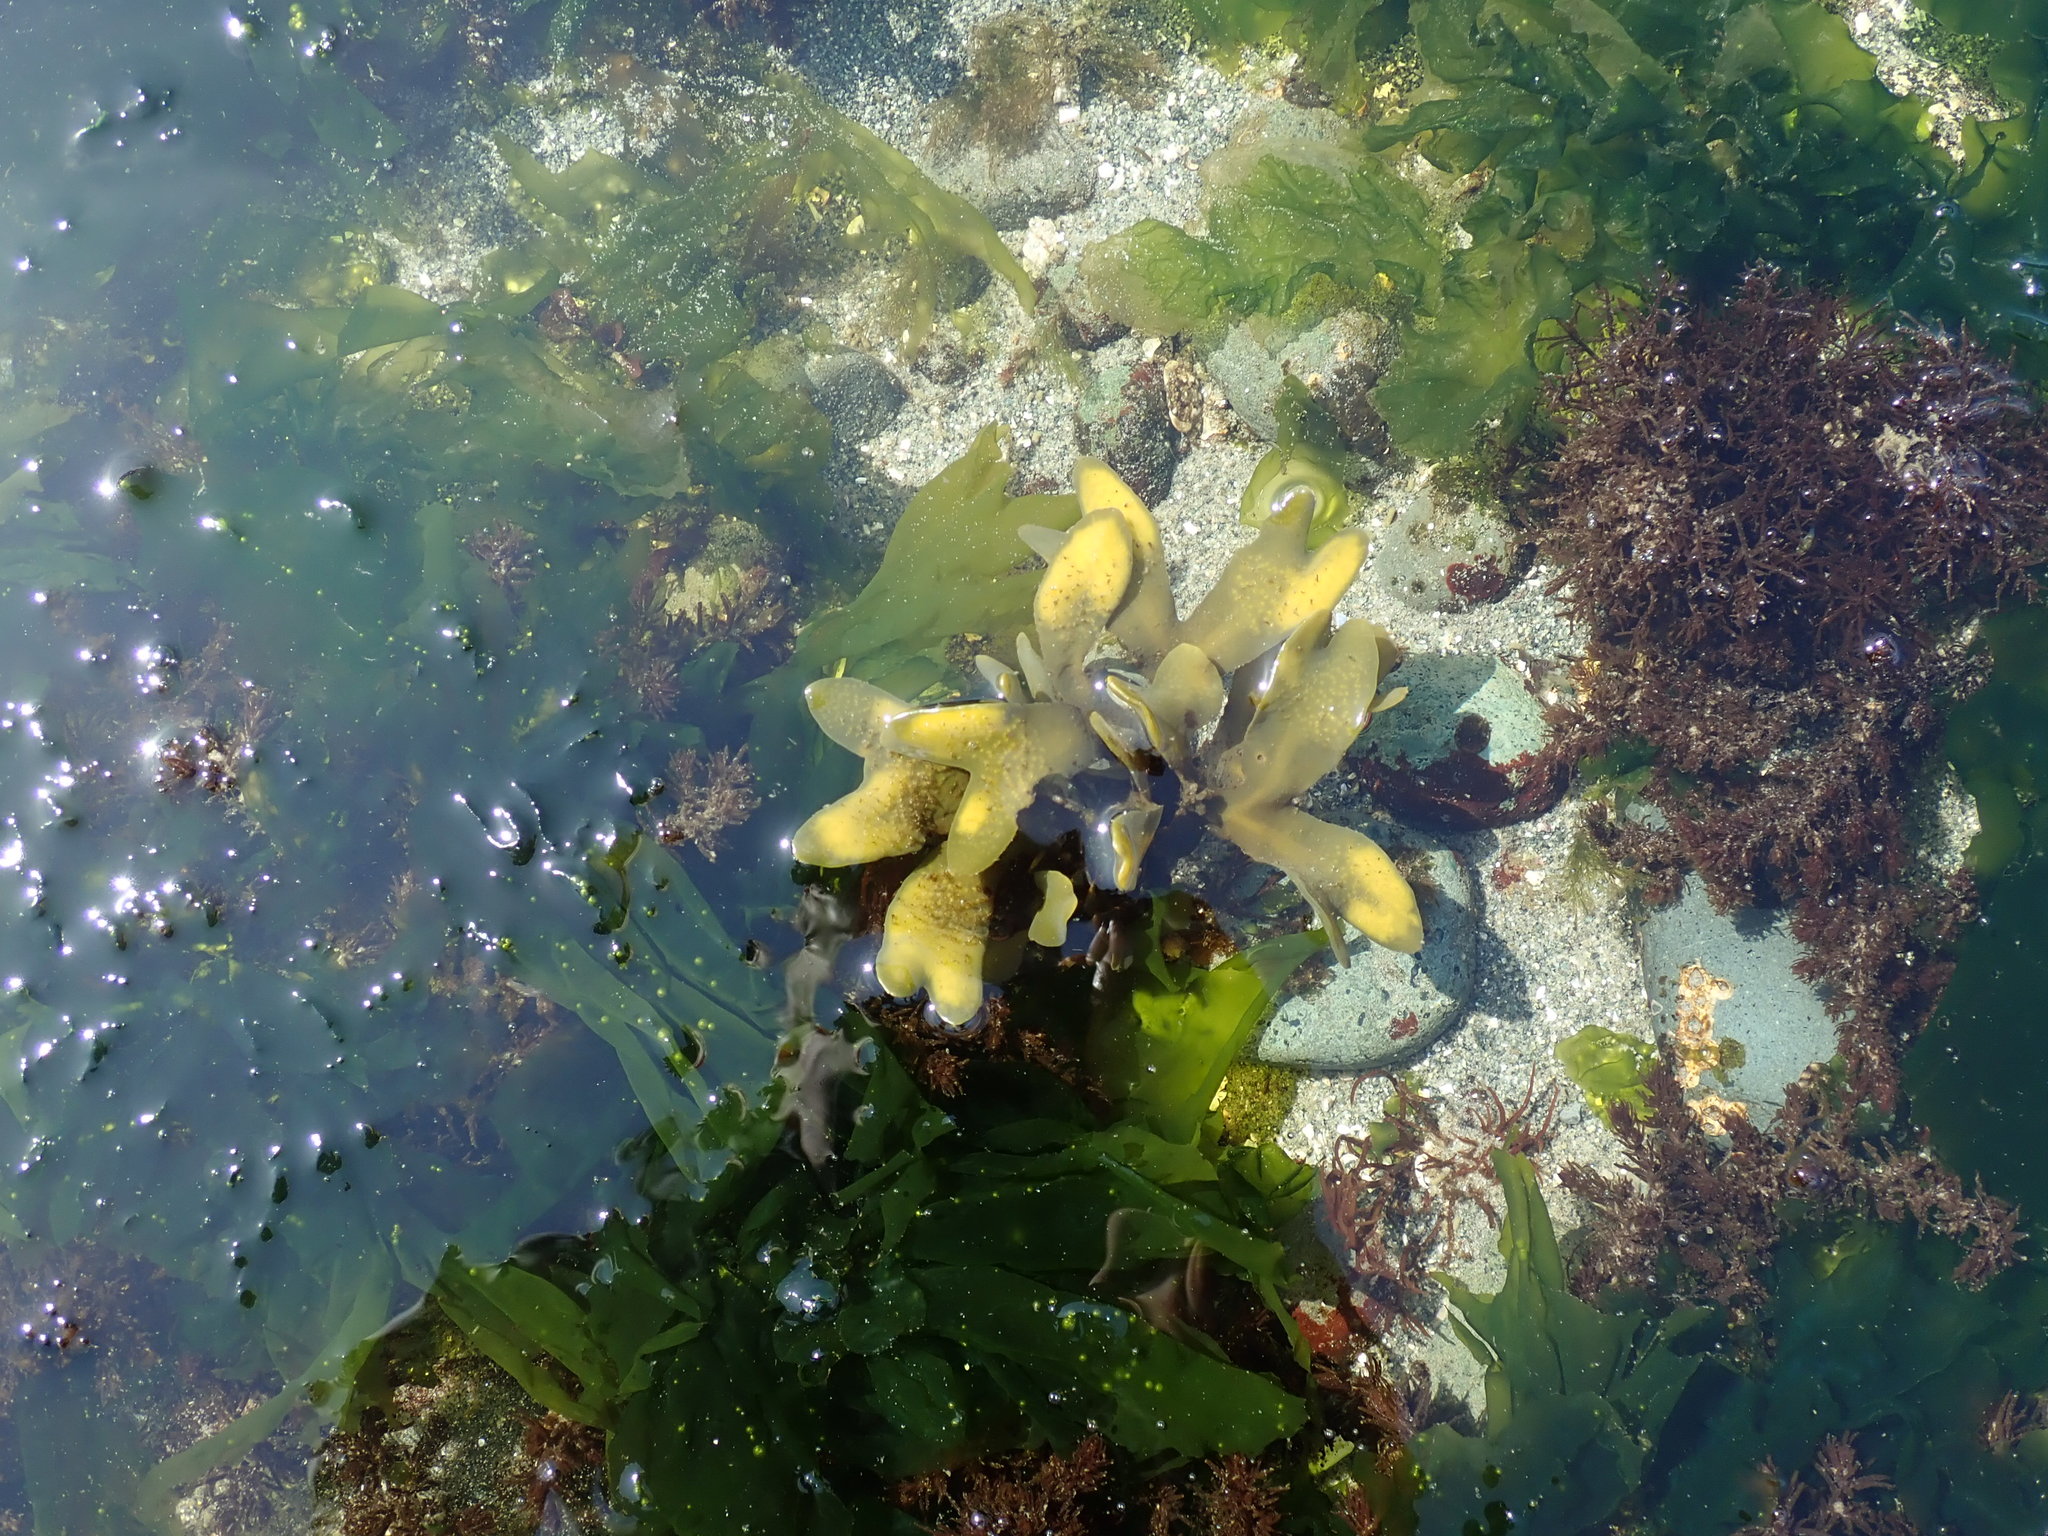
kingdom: Chromista
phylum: Ochrophyta
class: Phaeophyceae
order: Fucales
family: Fucaceae
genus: Fucus
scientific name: Fucus distichus
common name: Rockweed
